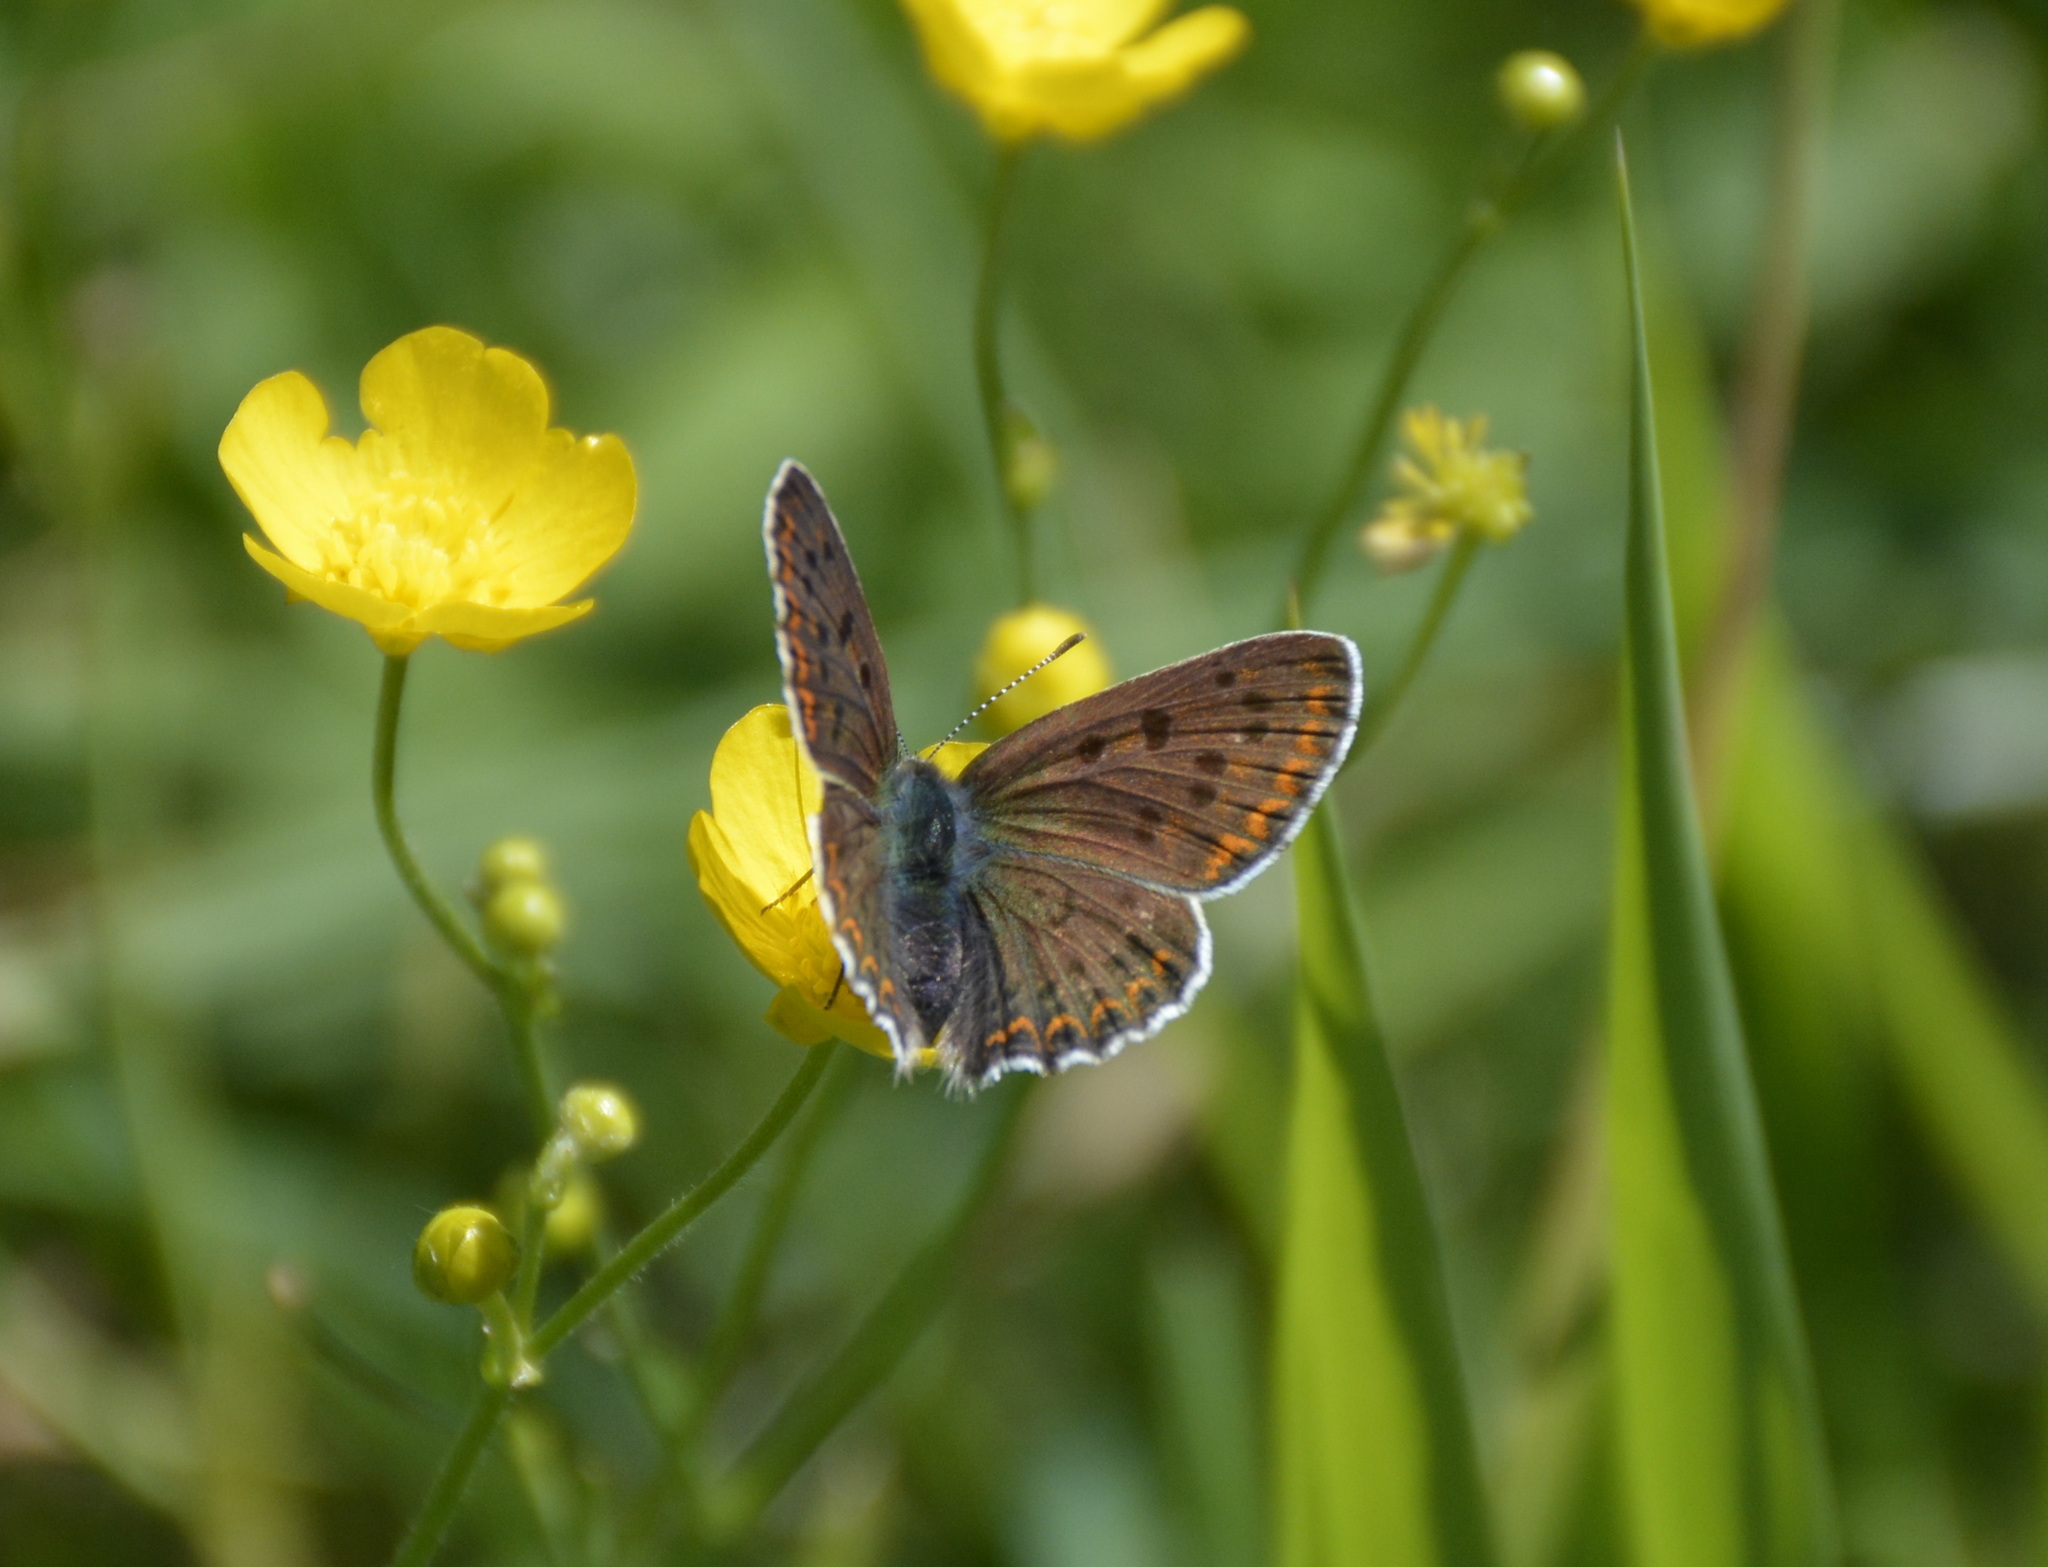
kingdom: Animalia
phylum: Arthropoda
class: Insecta
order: Lepidoptera
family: Lycaenidae
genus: Loweia
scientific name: Loweia tityrus
